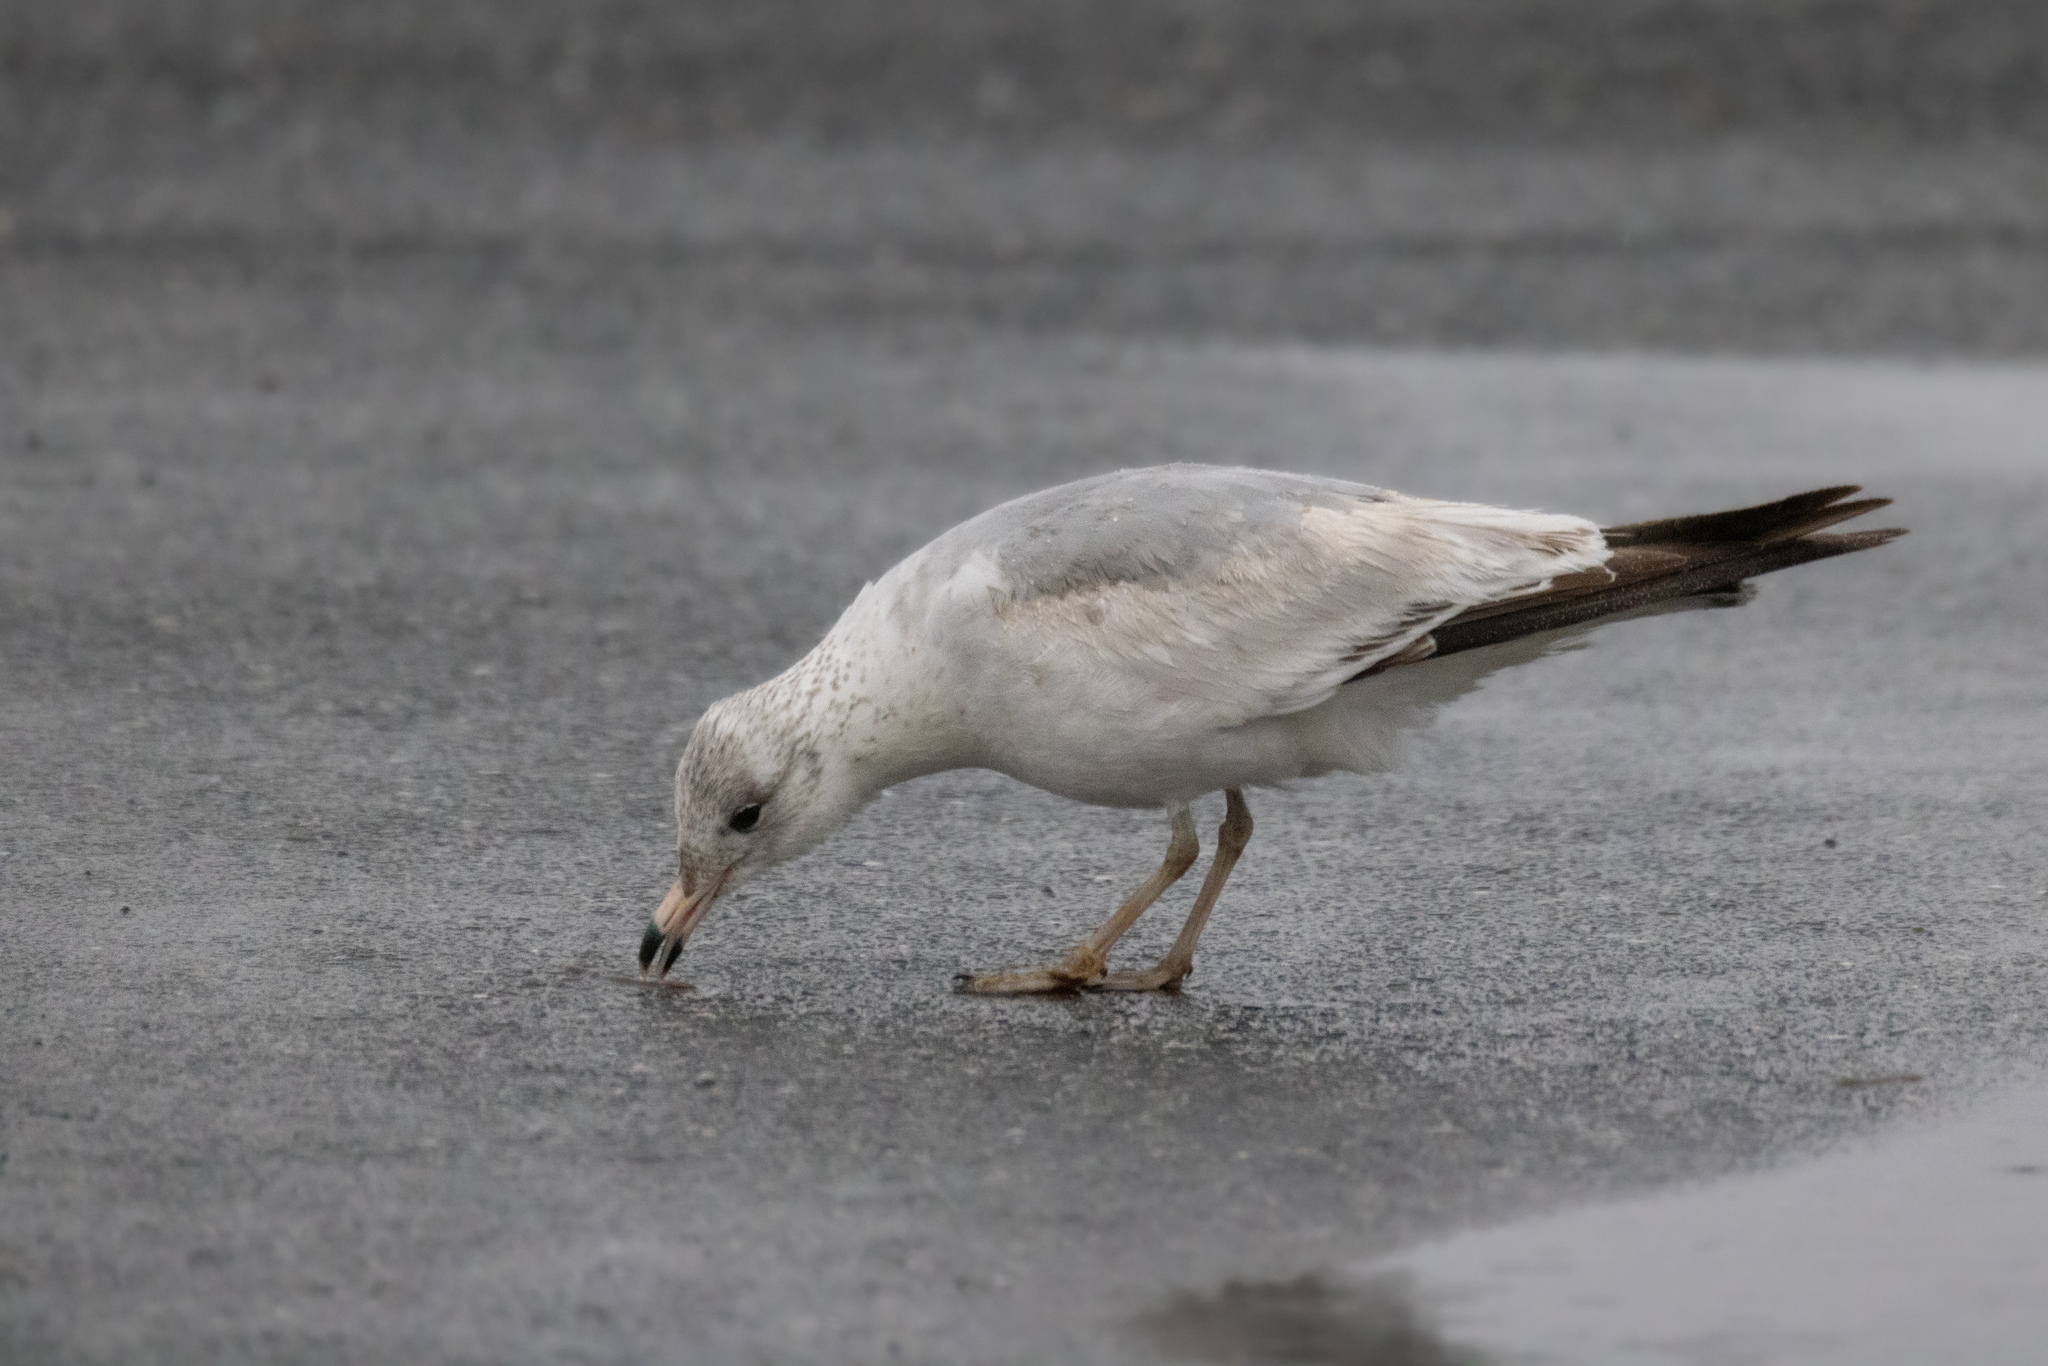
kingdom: Animalia
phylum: Chordata
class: Aves
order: Charadriiformes
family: Laridae
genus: Larus
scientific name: Larus delawarensis
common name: Ring-billed gull
